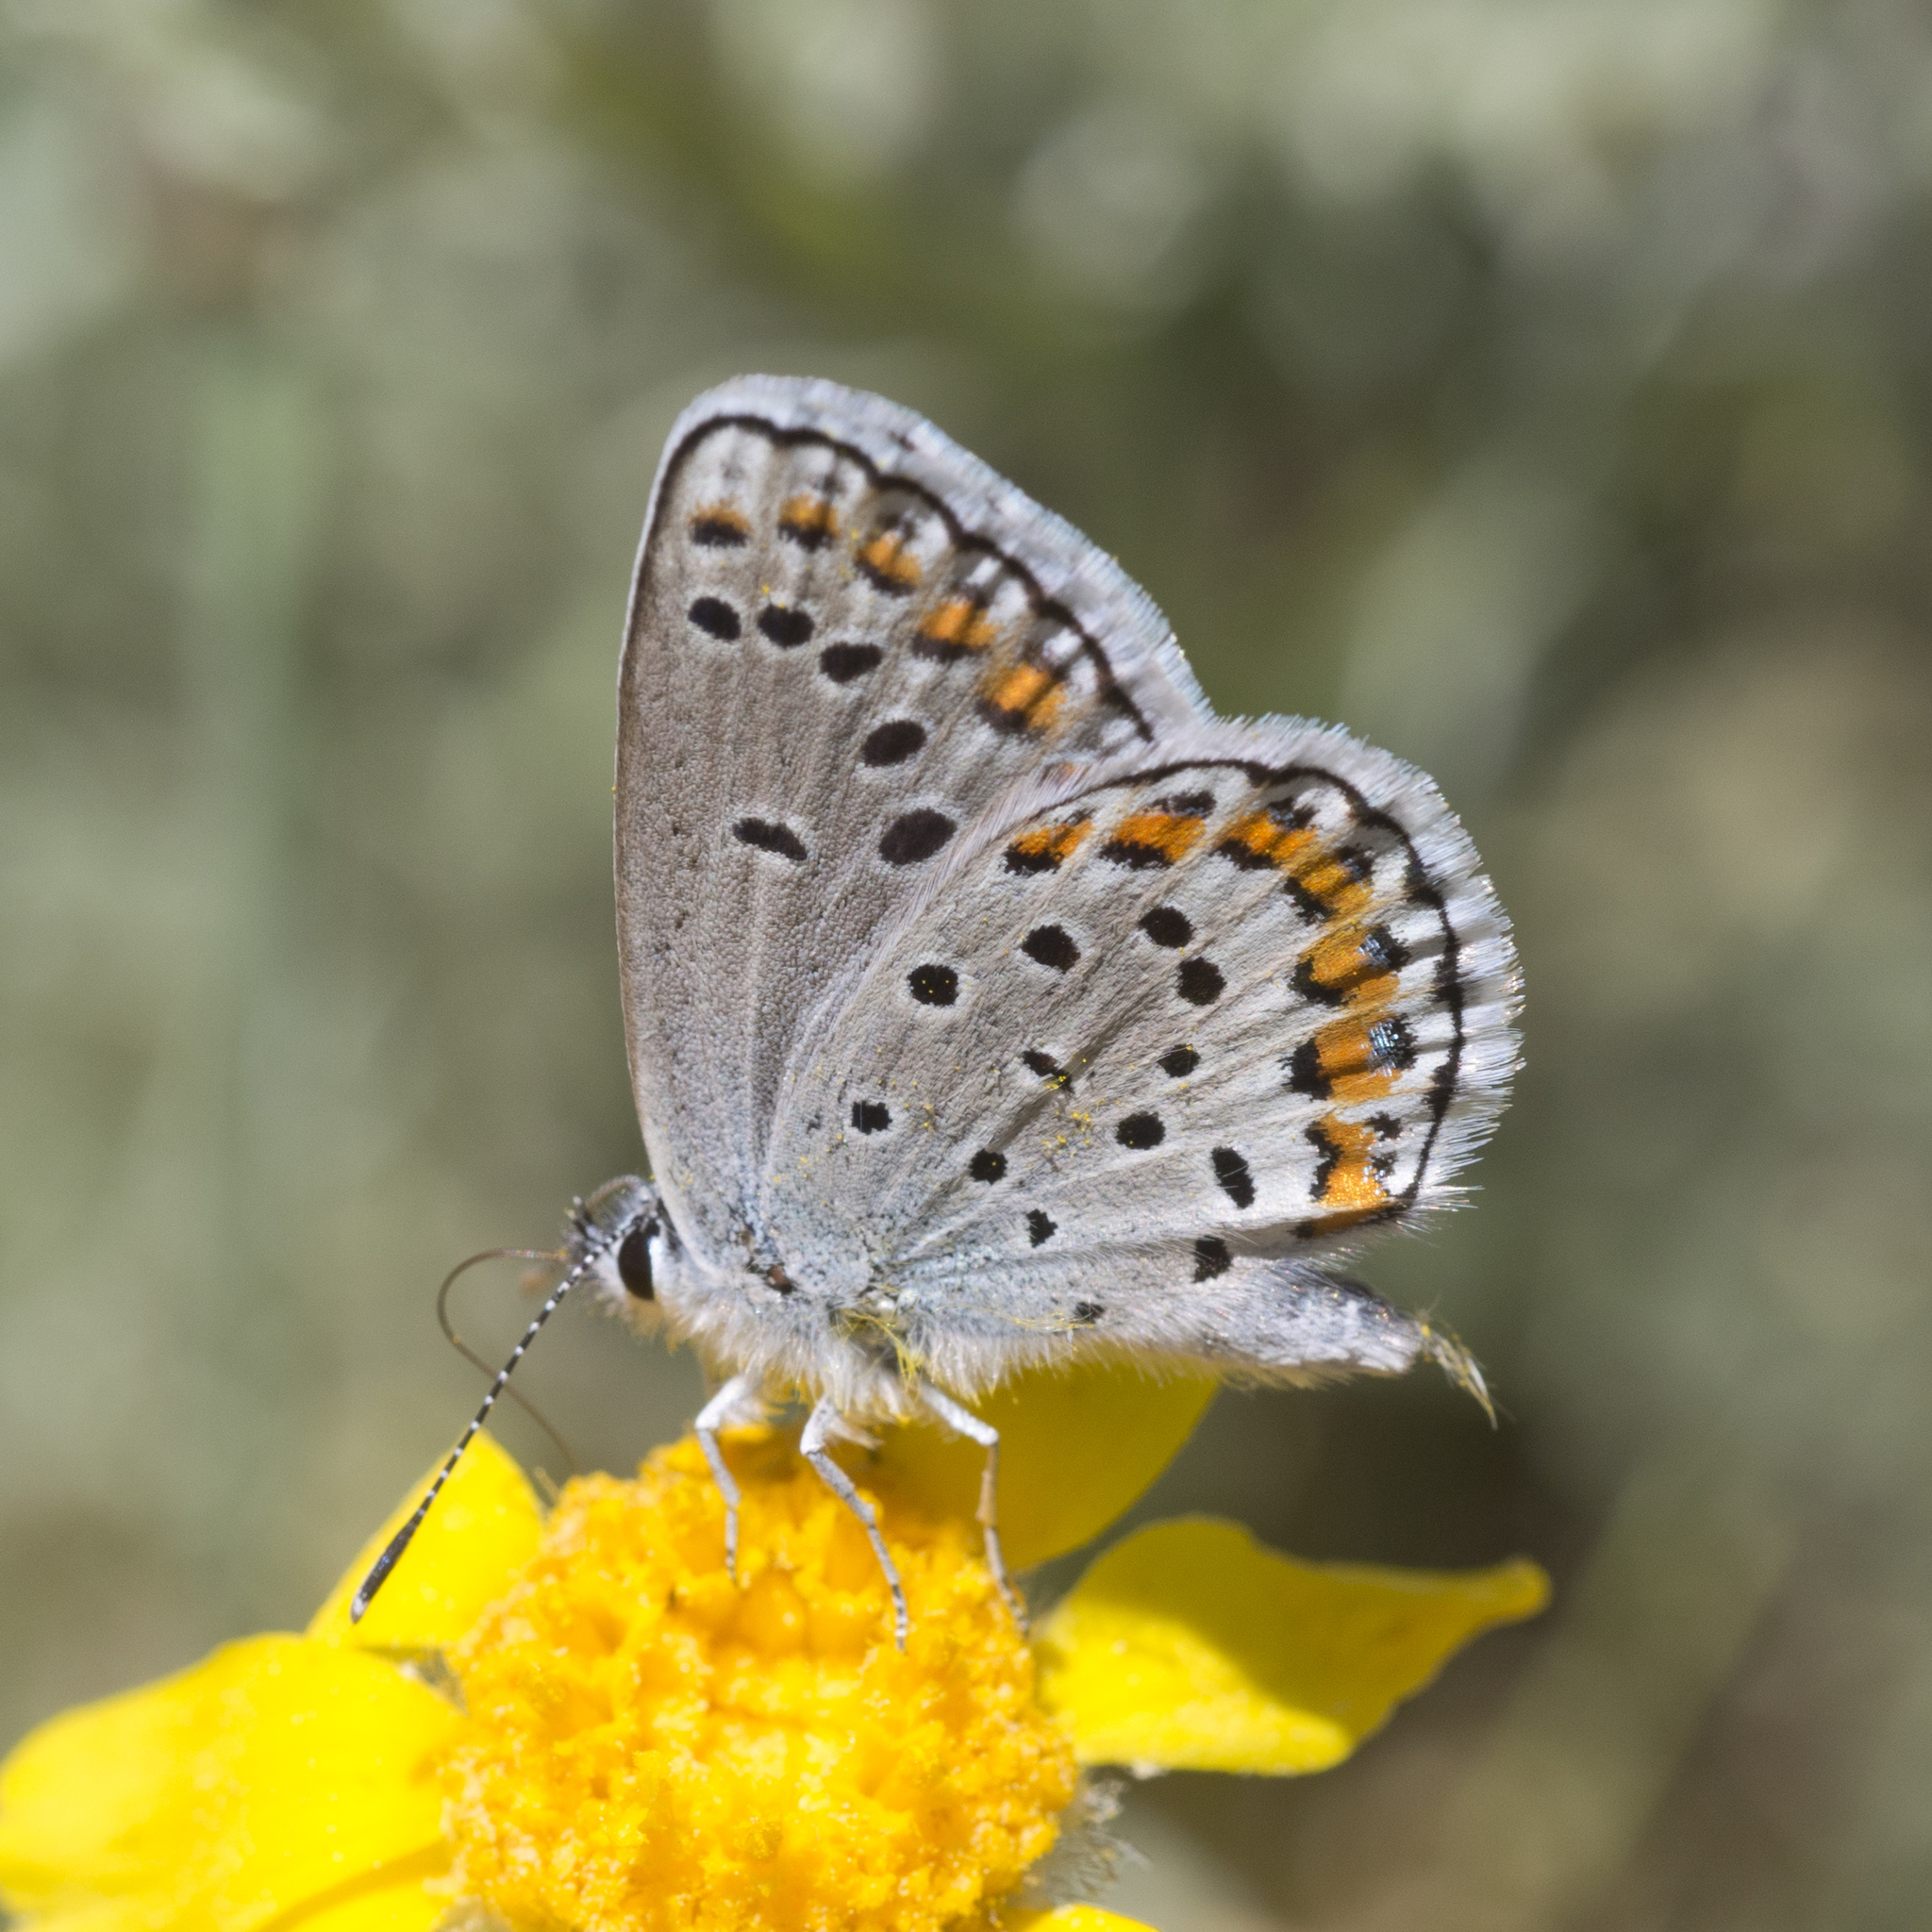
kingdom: Animalia
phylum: Arthropoda
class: Insecta
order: Lepidoptera
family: Lycaenidae
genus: Lycaeides
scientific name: Lycaeides melissa
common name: Melissa blue
